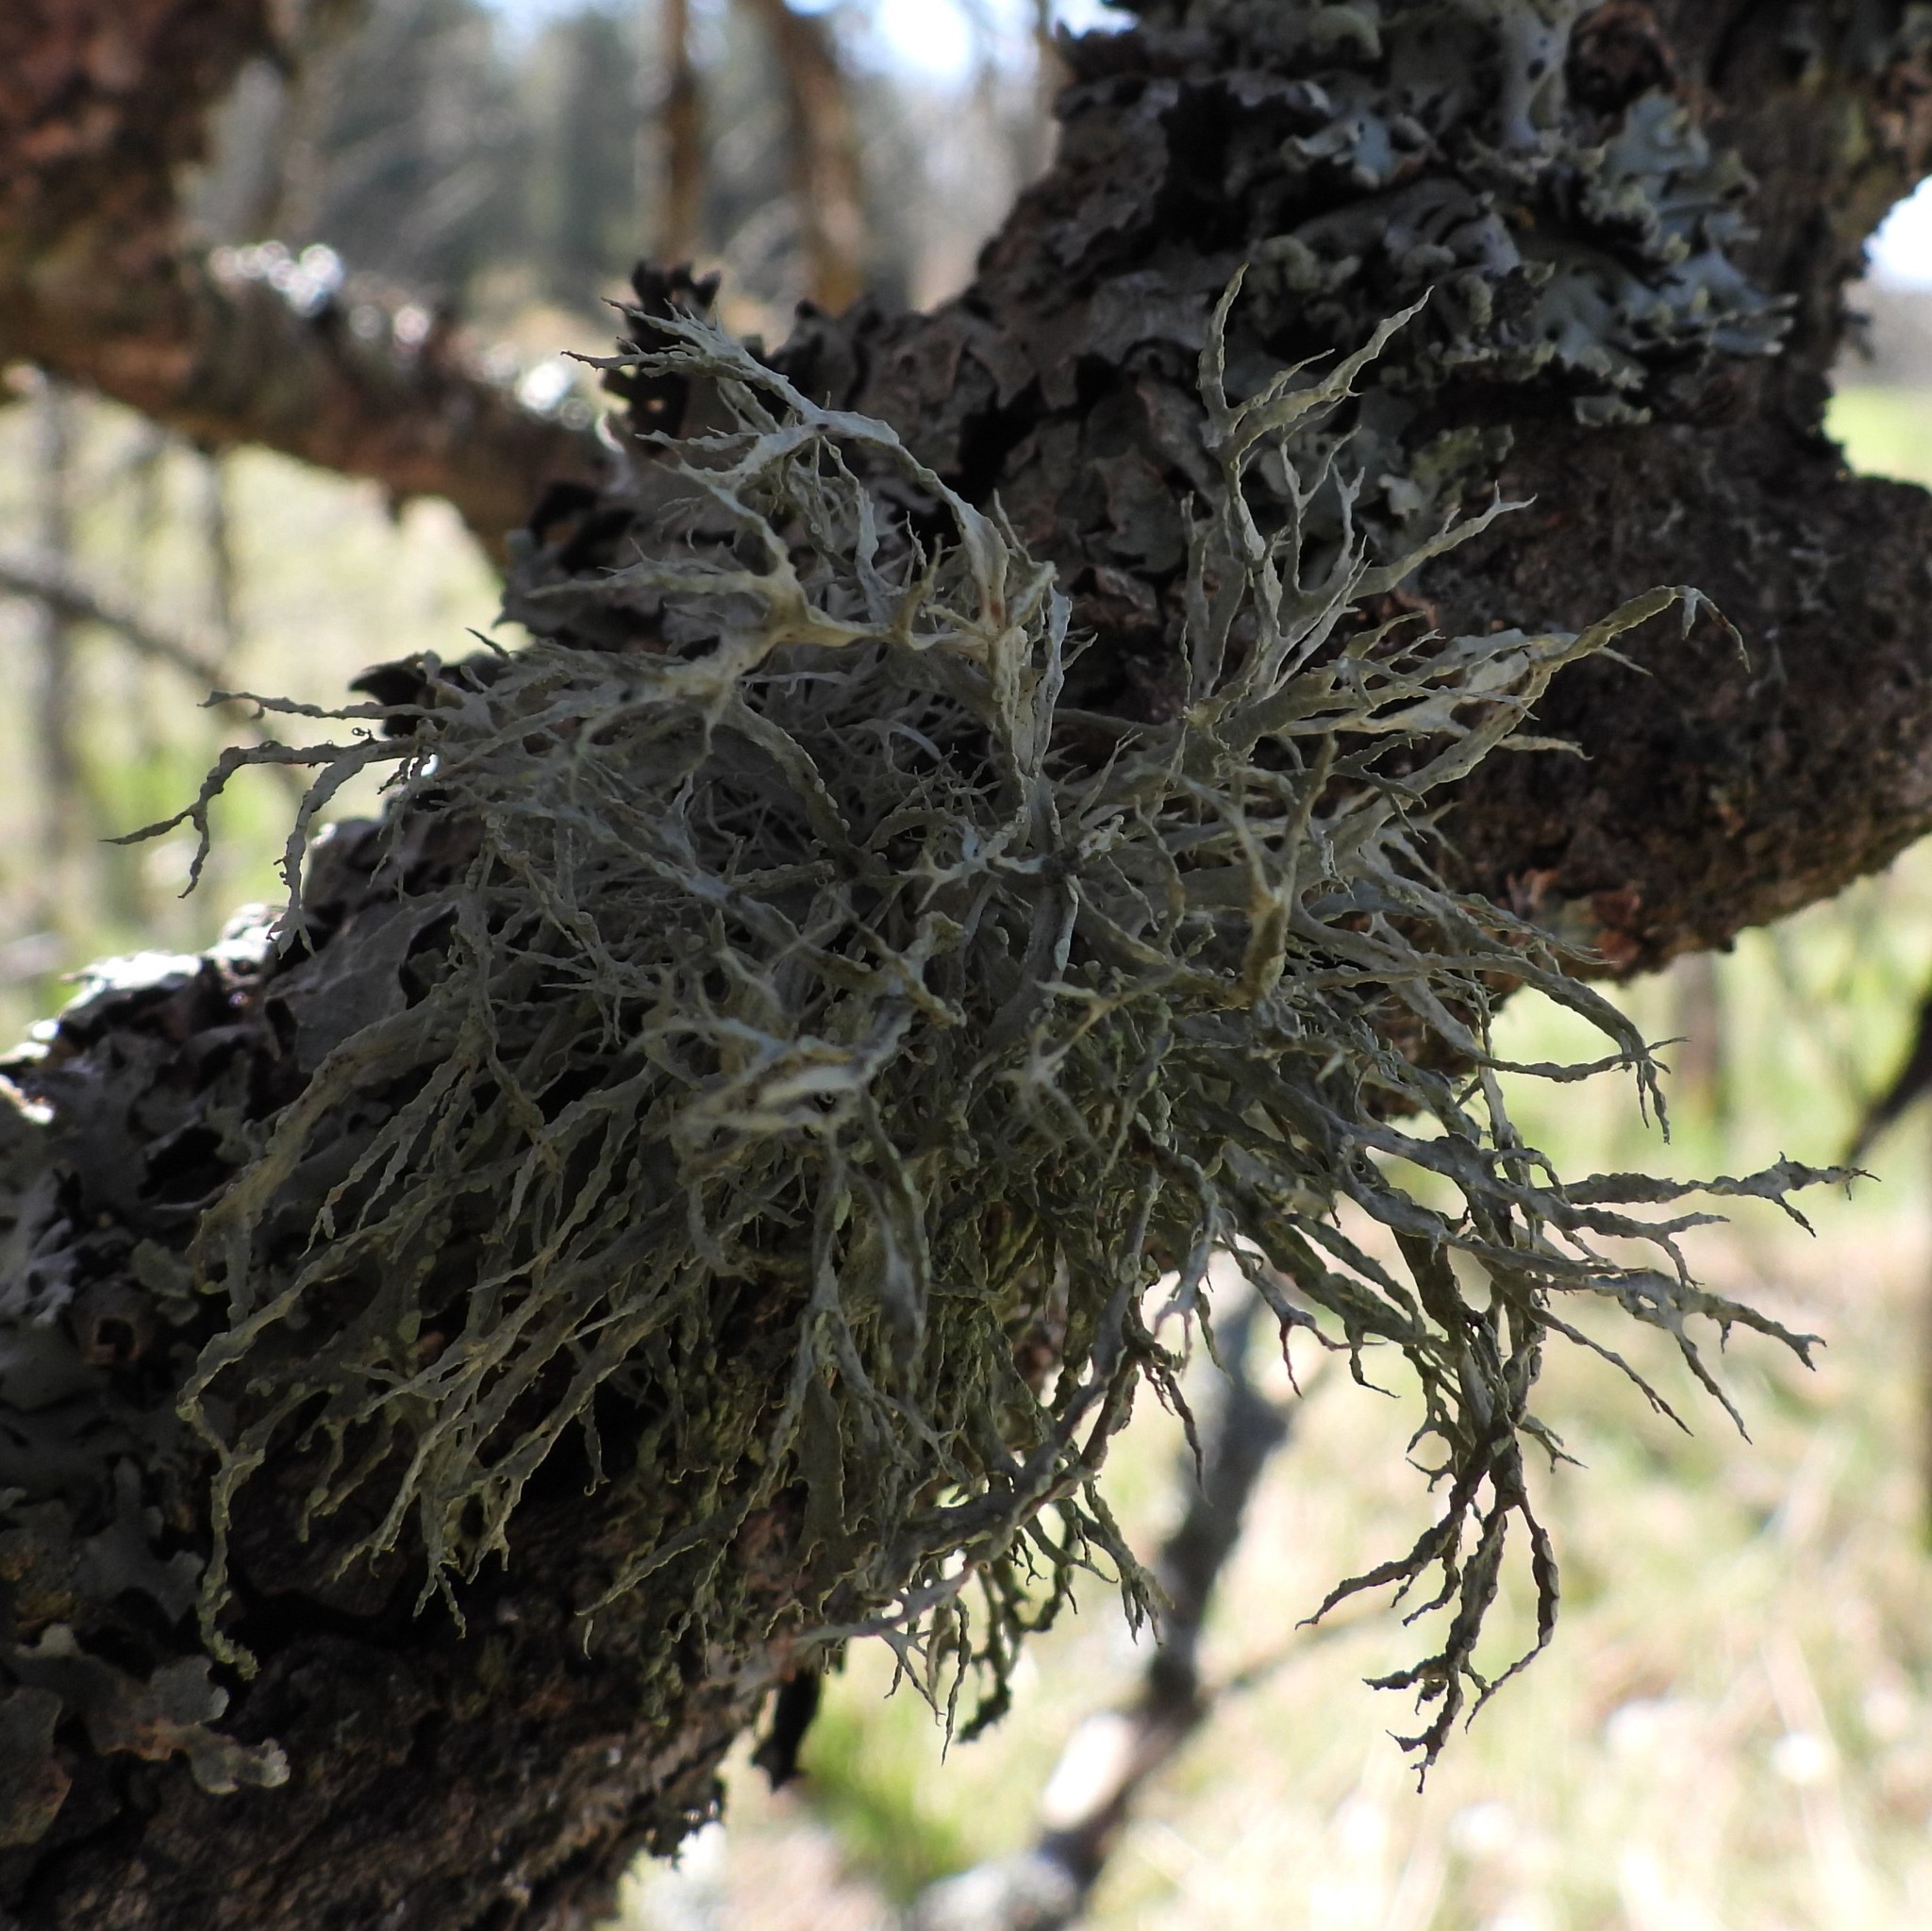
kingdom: Fungi
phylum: Ascomycota
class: Lecanoromycetes
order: Lecanorales
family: Ramalinaceae
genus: Ramalina
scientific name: Ramalina farinacea
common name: Farinose cartilage lichen
